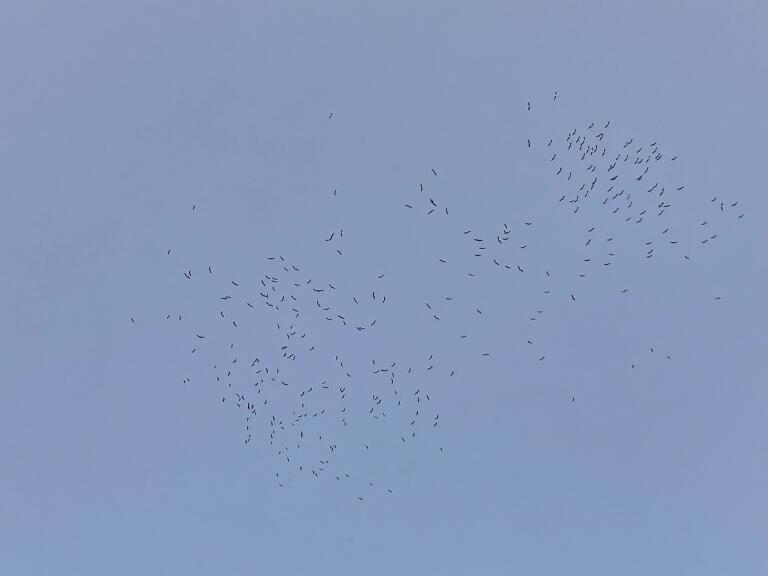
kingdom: Animalia
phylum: Chordata
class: Aves
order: Ciconiiformes
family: Ciconiidae
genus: Ciconia
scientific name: Ciconia ciconia
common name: White stork
